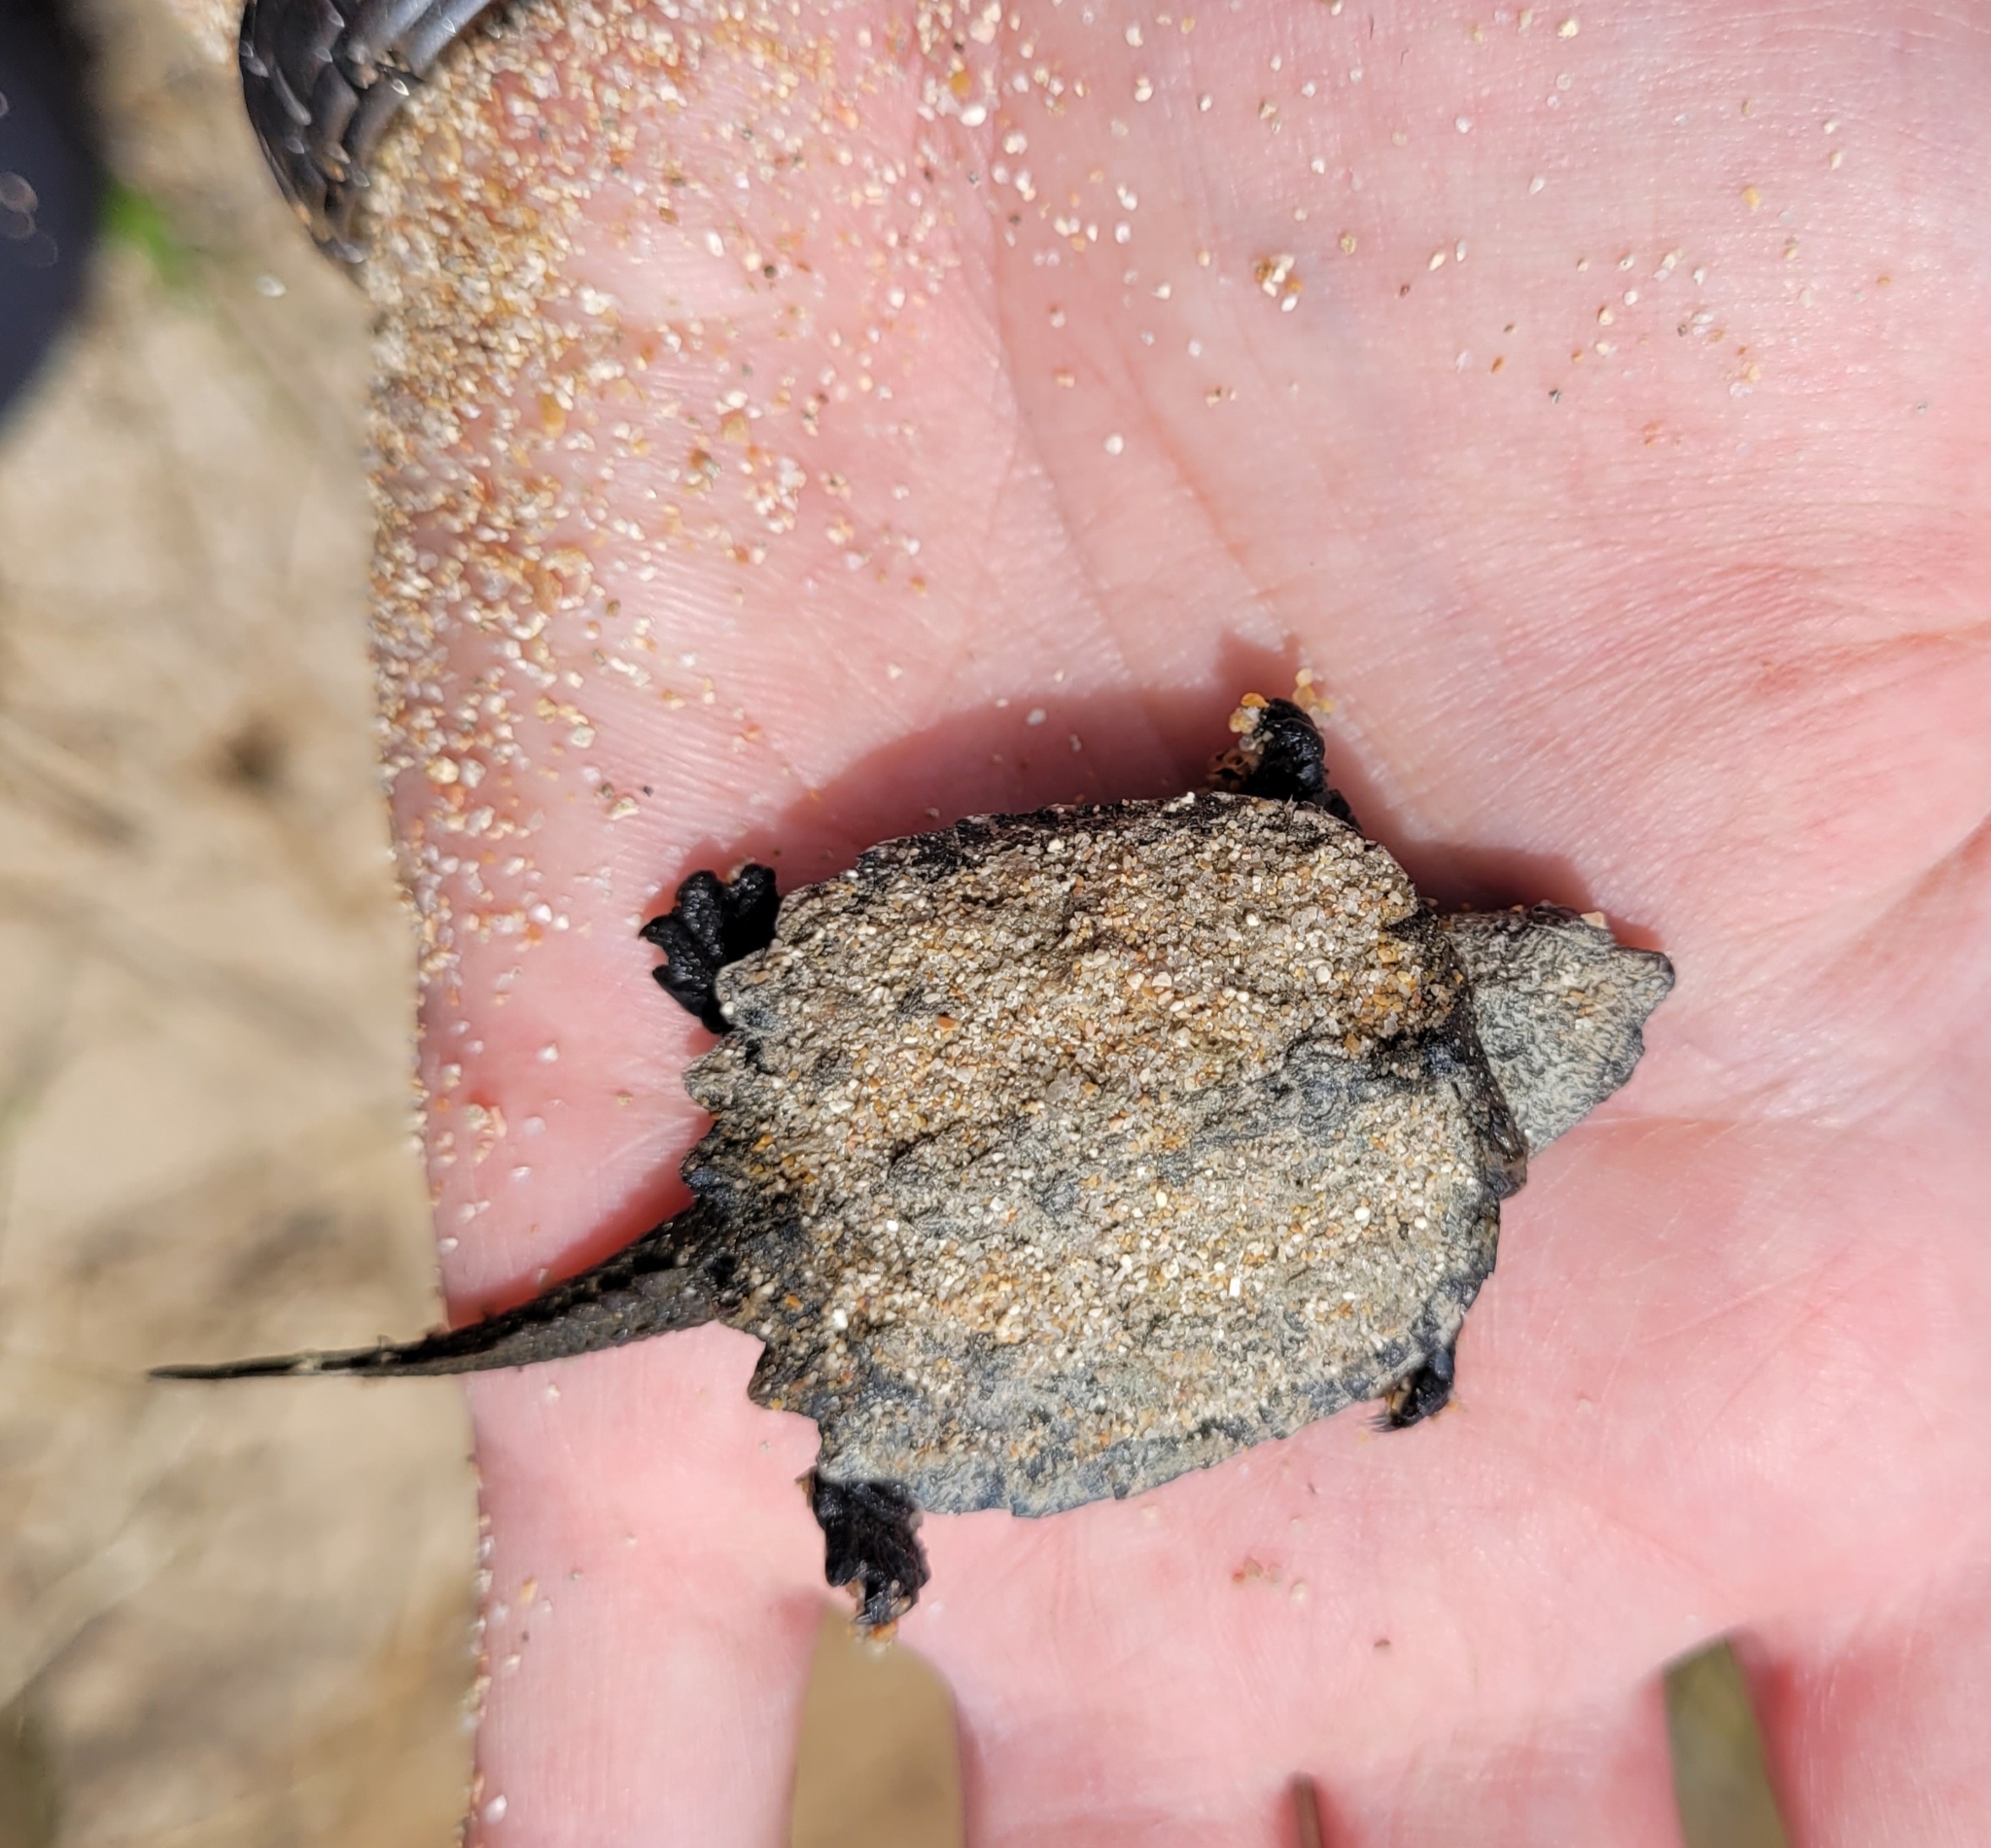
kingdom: Animalia
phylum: Chordata
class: Testudines
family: Chelydridae
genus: Chelydra
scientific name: Chelydra serpentina
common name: Common snapping turtle
